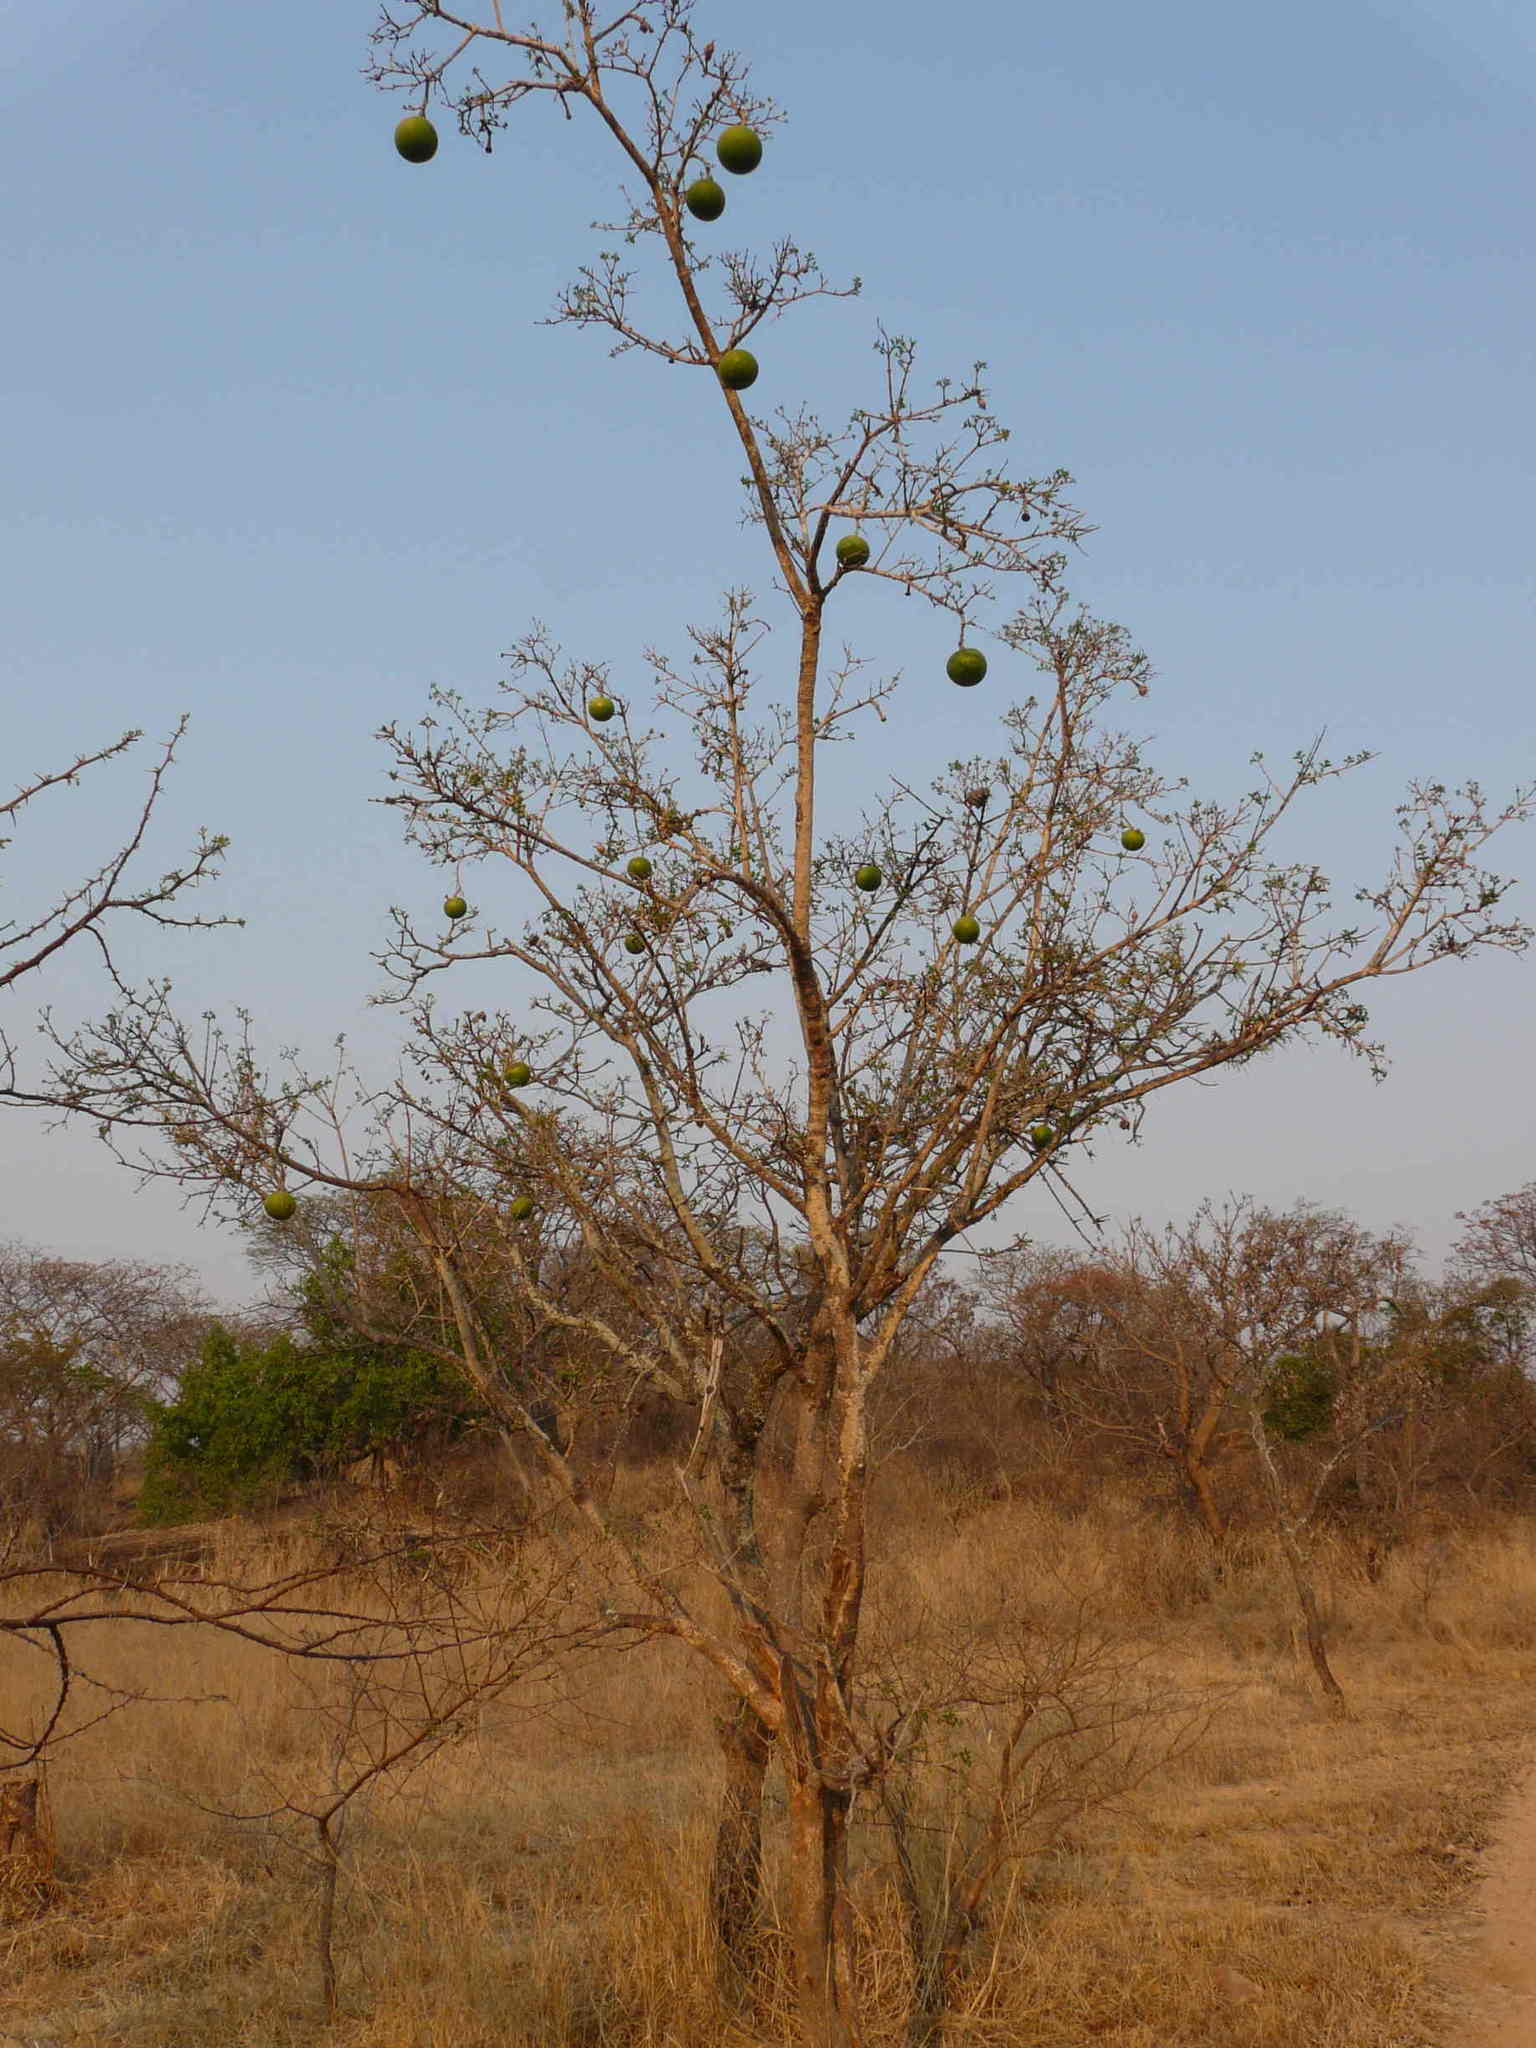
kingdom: Plantae
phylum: Tracheophyta
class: Magnoliopsida
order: Gentianales
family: Loganiaceae
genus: Strychnos
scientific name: Strychnos spinosa
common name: Natal orange
